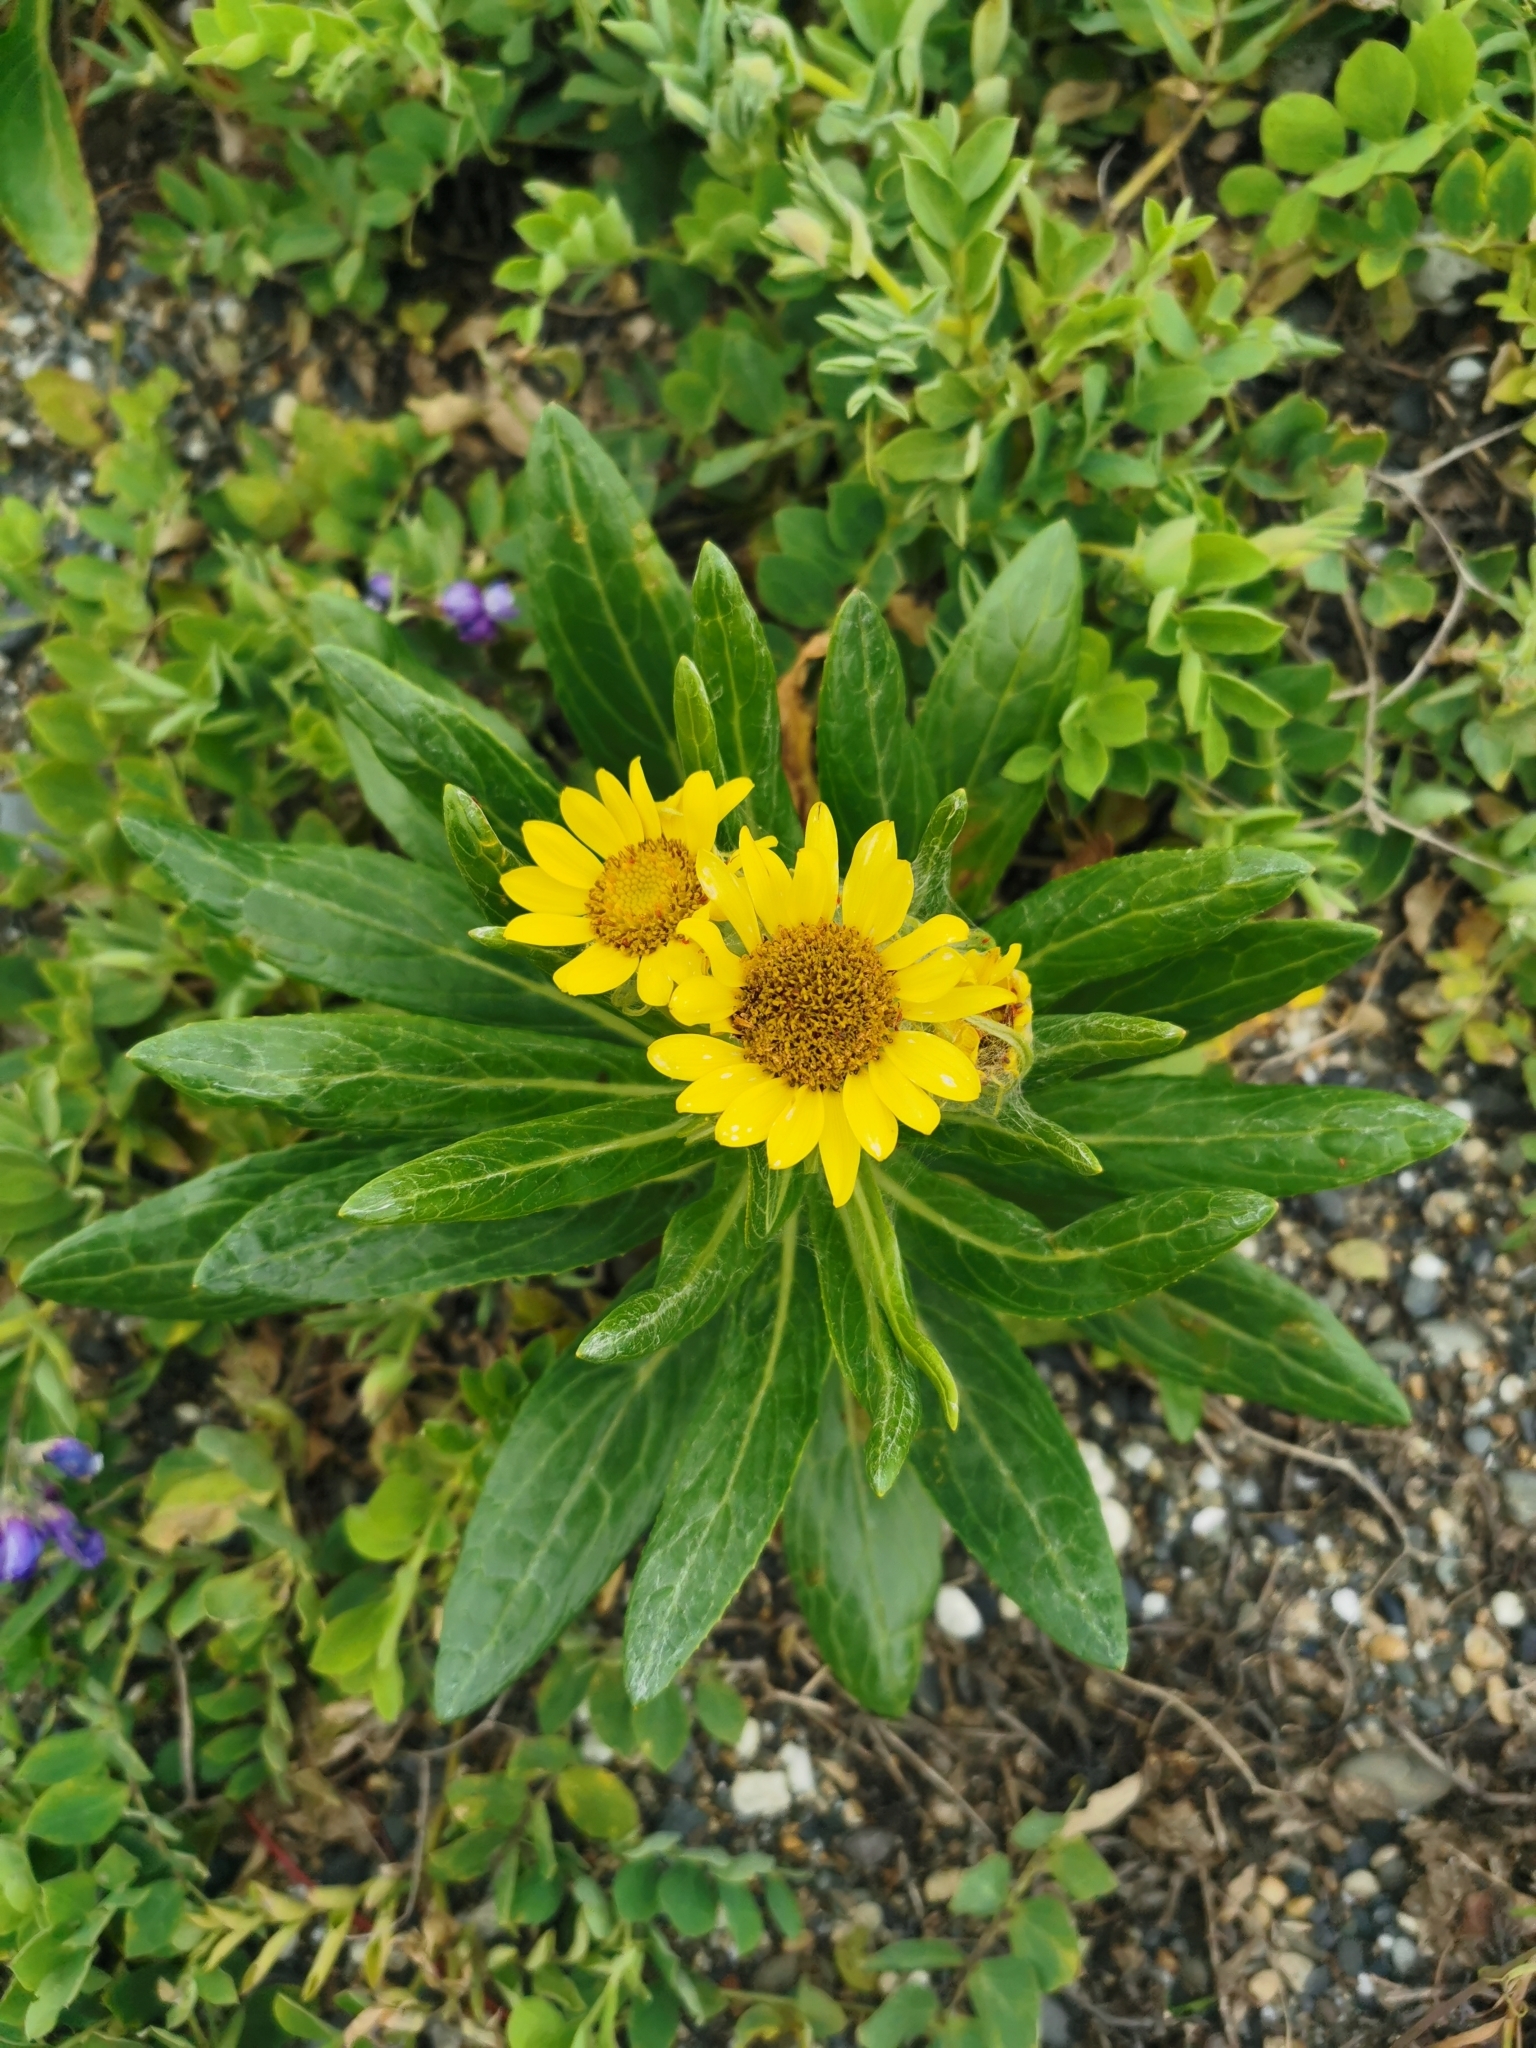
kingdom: Plantae
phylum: Tracheophyta
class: Magnoliopsida
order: Asterales
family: Asteraceae
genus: Jacobaea
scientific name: Jacobaea pseudoarnica
